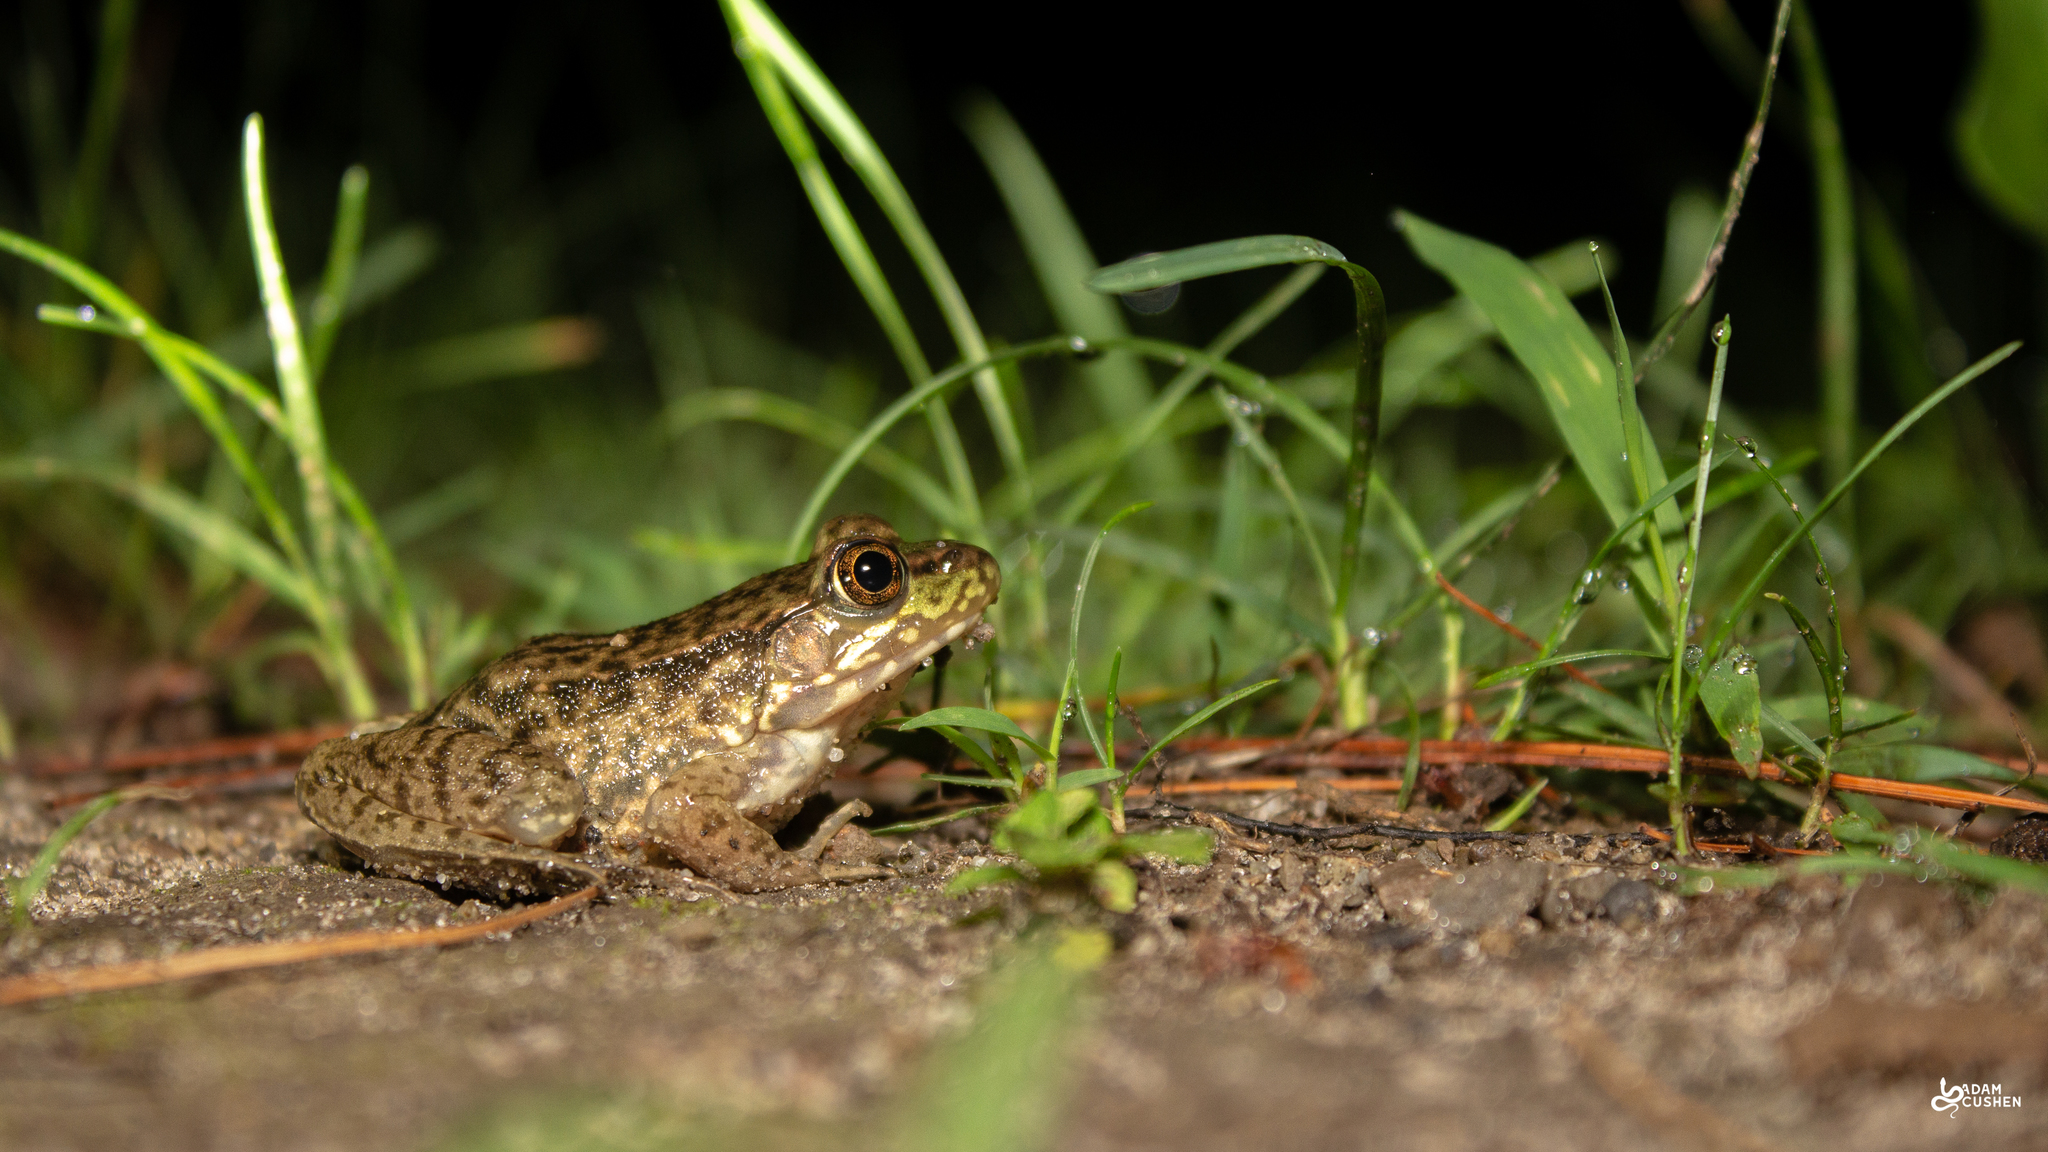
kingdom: Animalia
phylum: Chordata
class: Amphibia
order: Anura
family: Ranidae
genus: Lithobates
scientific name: Lithobates clamitans
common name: Green frog
